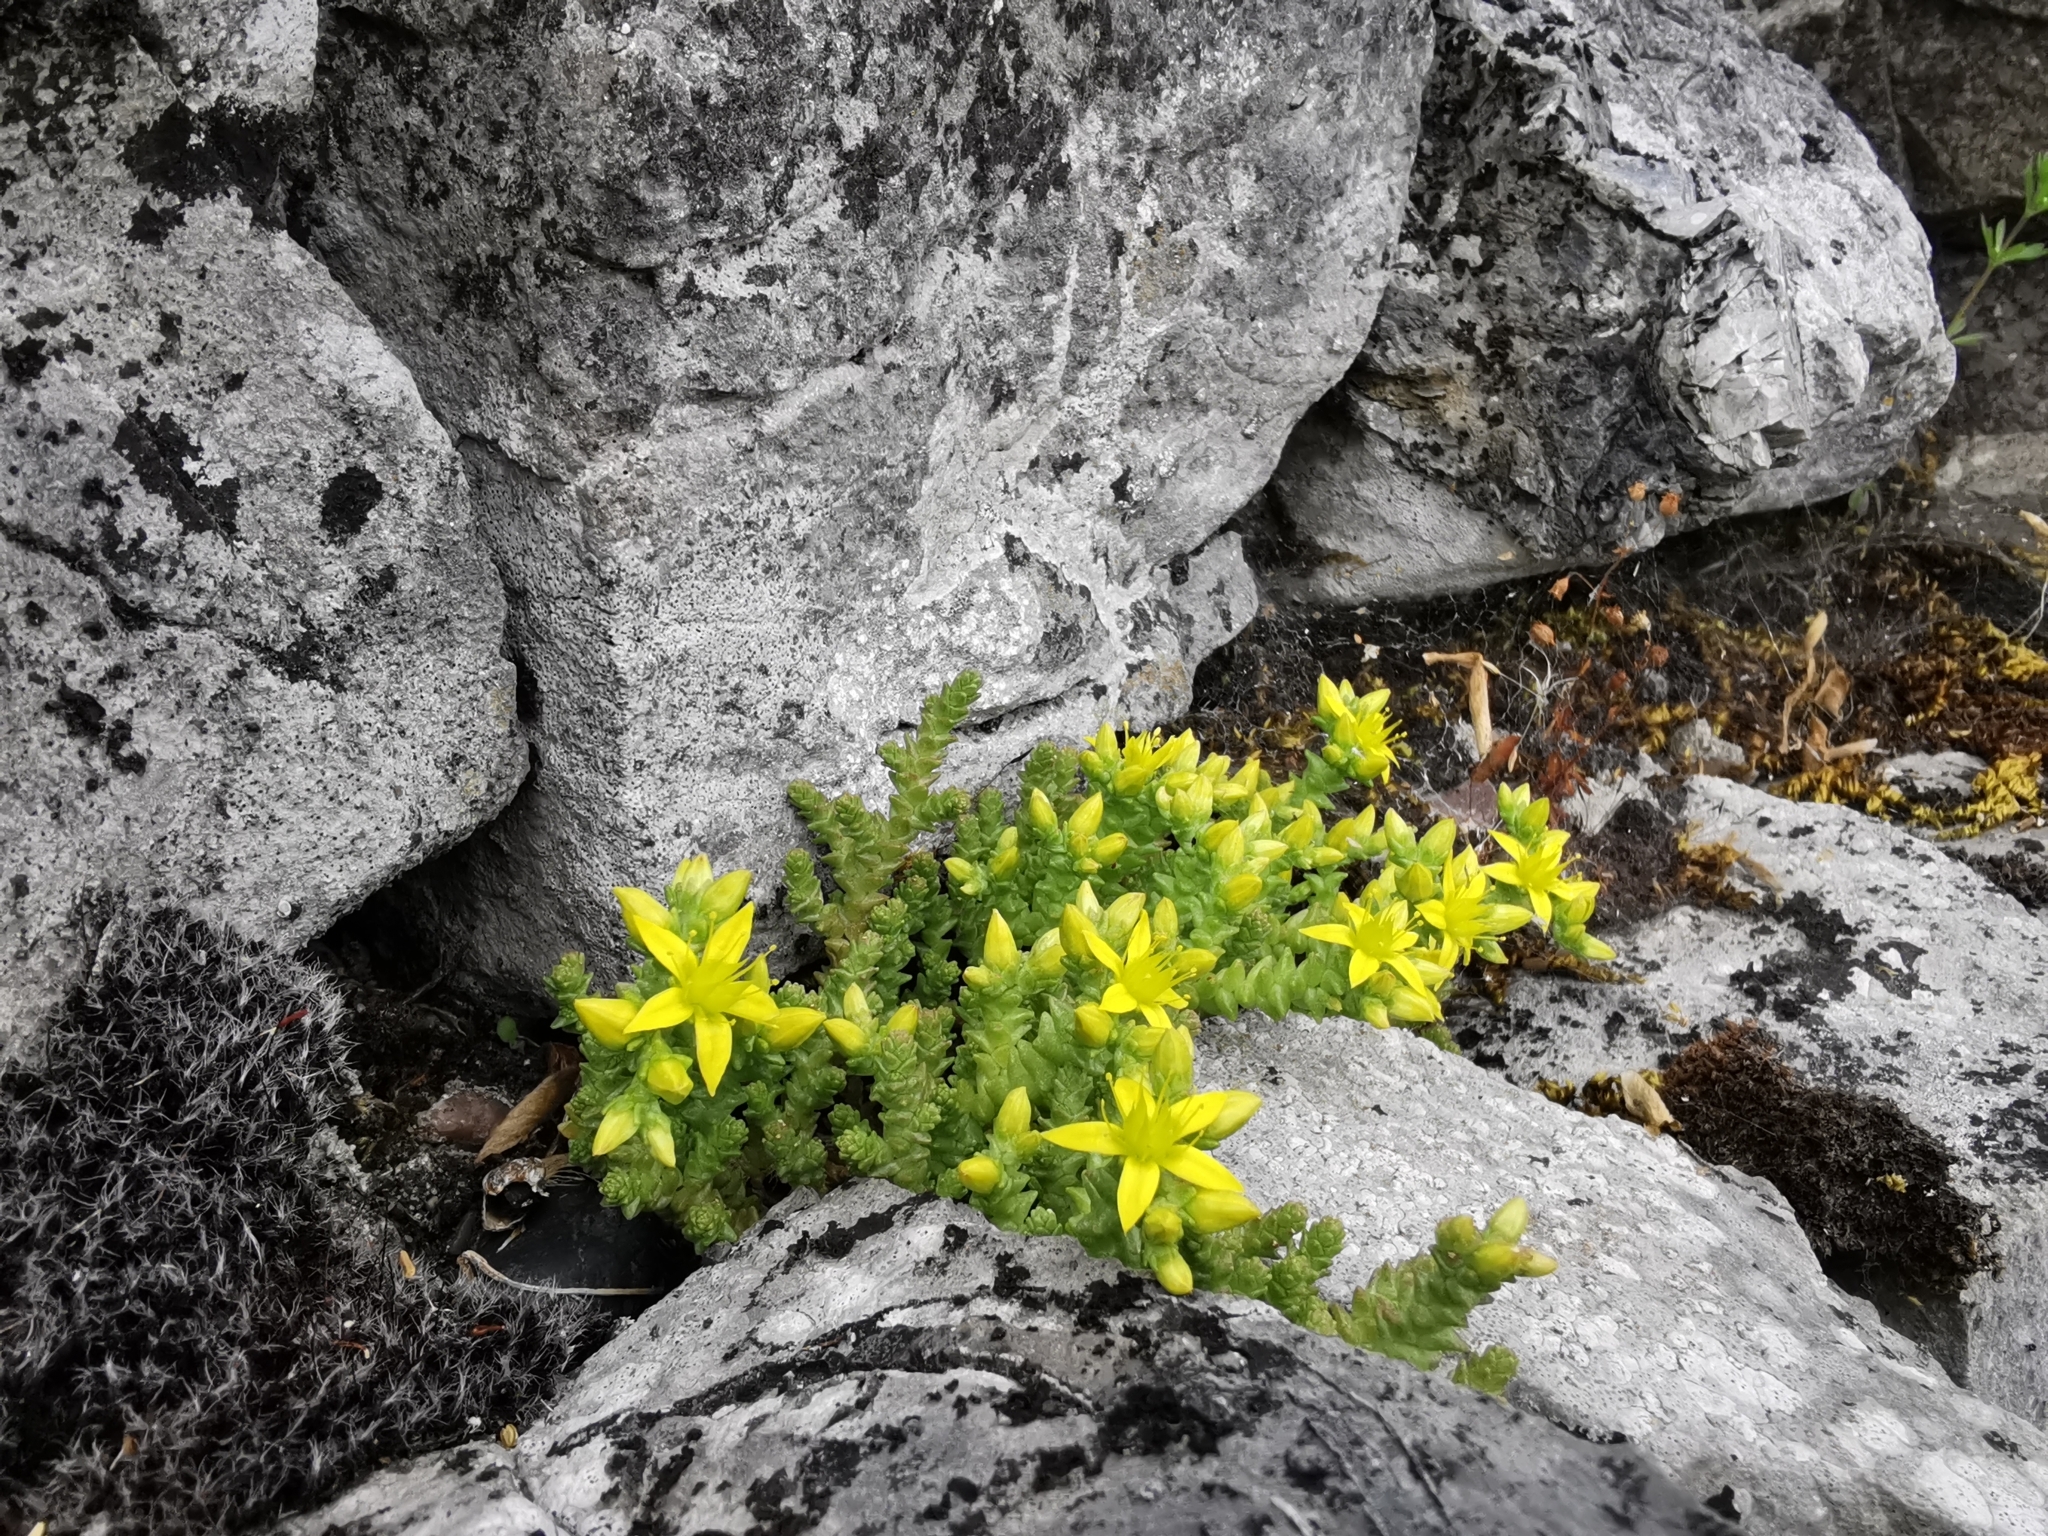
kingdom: Plantae
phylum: Tracheophyta
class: Magnoliopsida
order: Saxifragales
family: Crassulaceae
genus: Sedum
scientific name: Sedum acre
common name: Biting stonecrop
